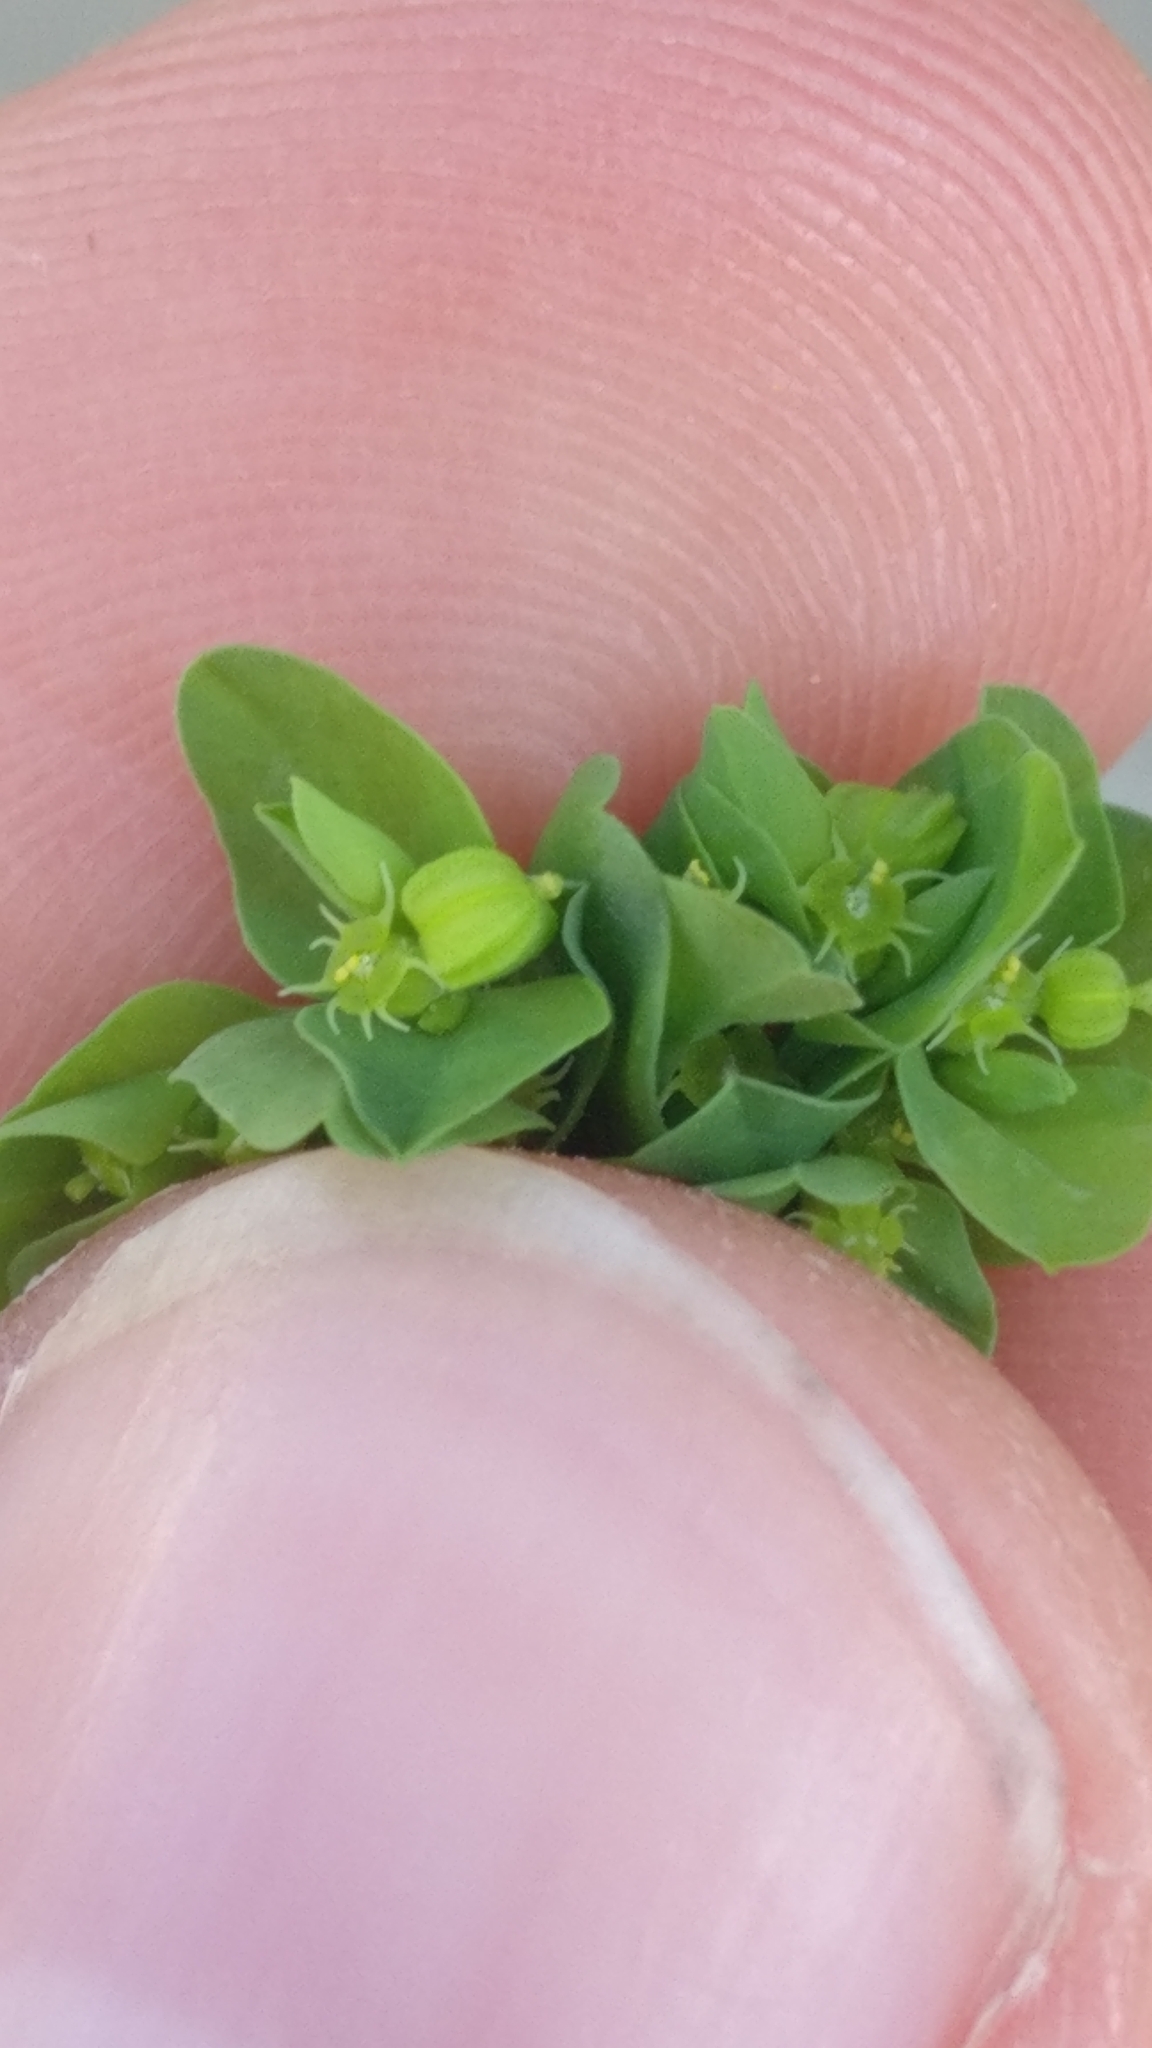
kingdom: Plantae
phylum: Tracheophyta
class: Magnoliopsida
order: Malpighiales
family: Euphorbiaceae
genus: Euphorbia
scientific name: Euphorbia peplus
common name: Petty spurge
